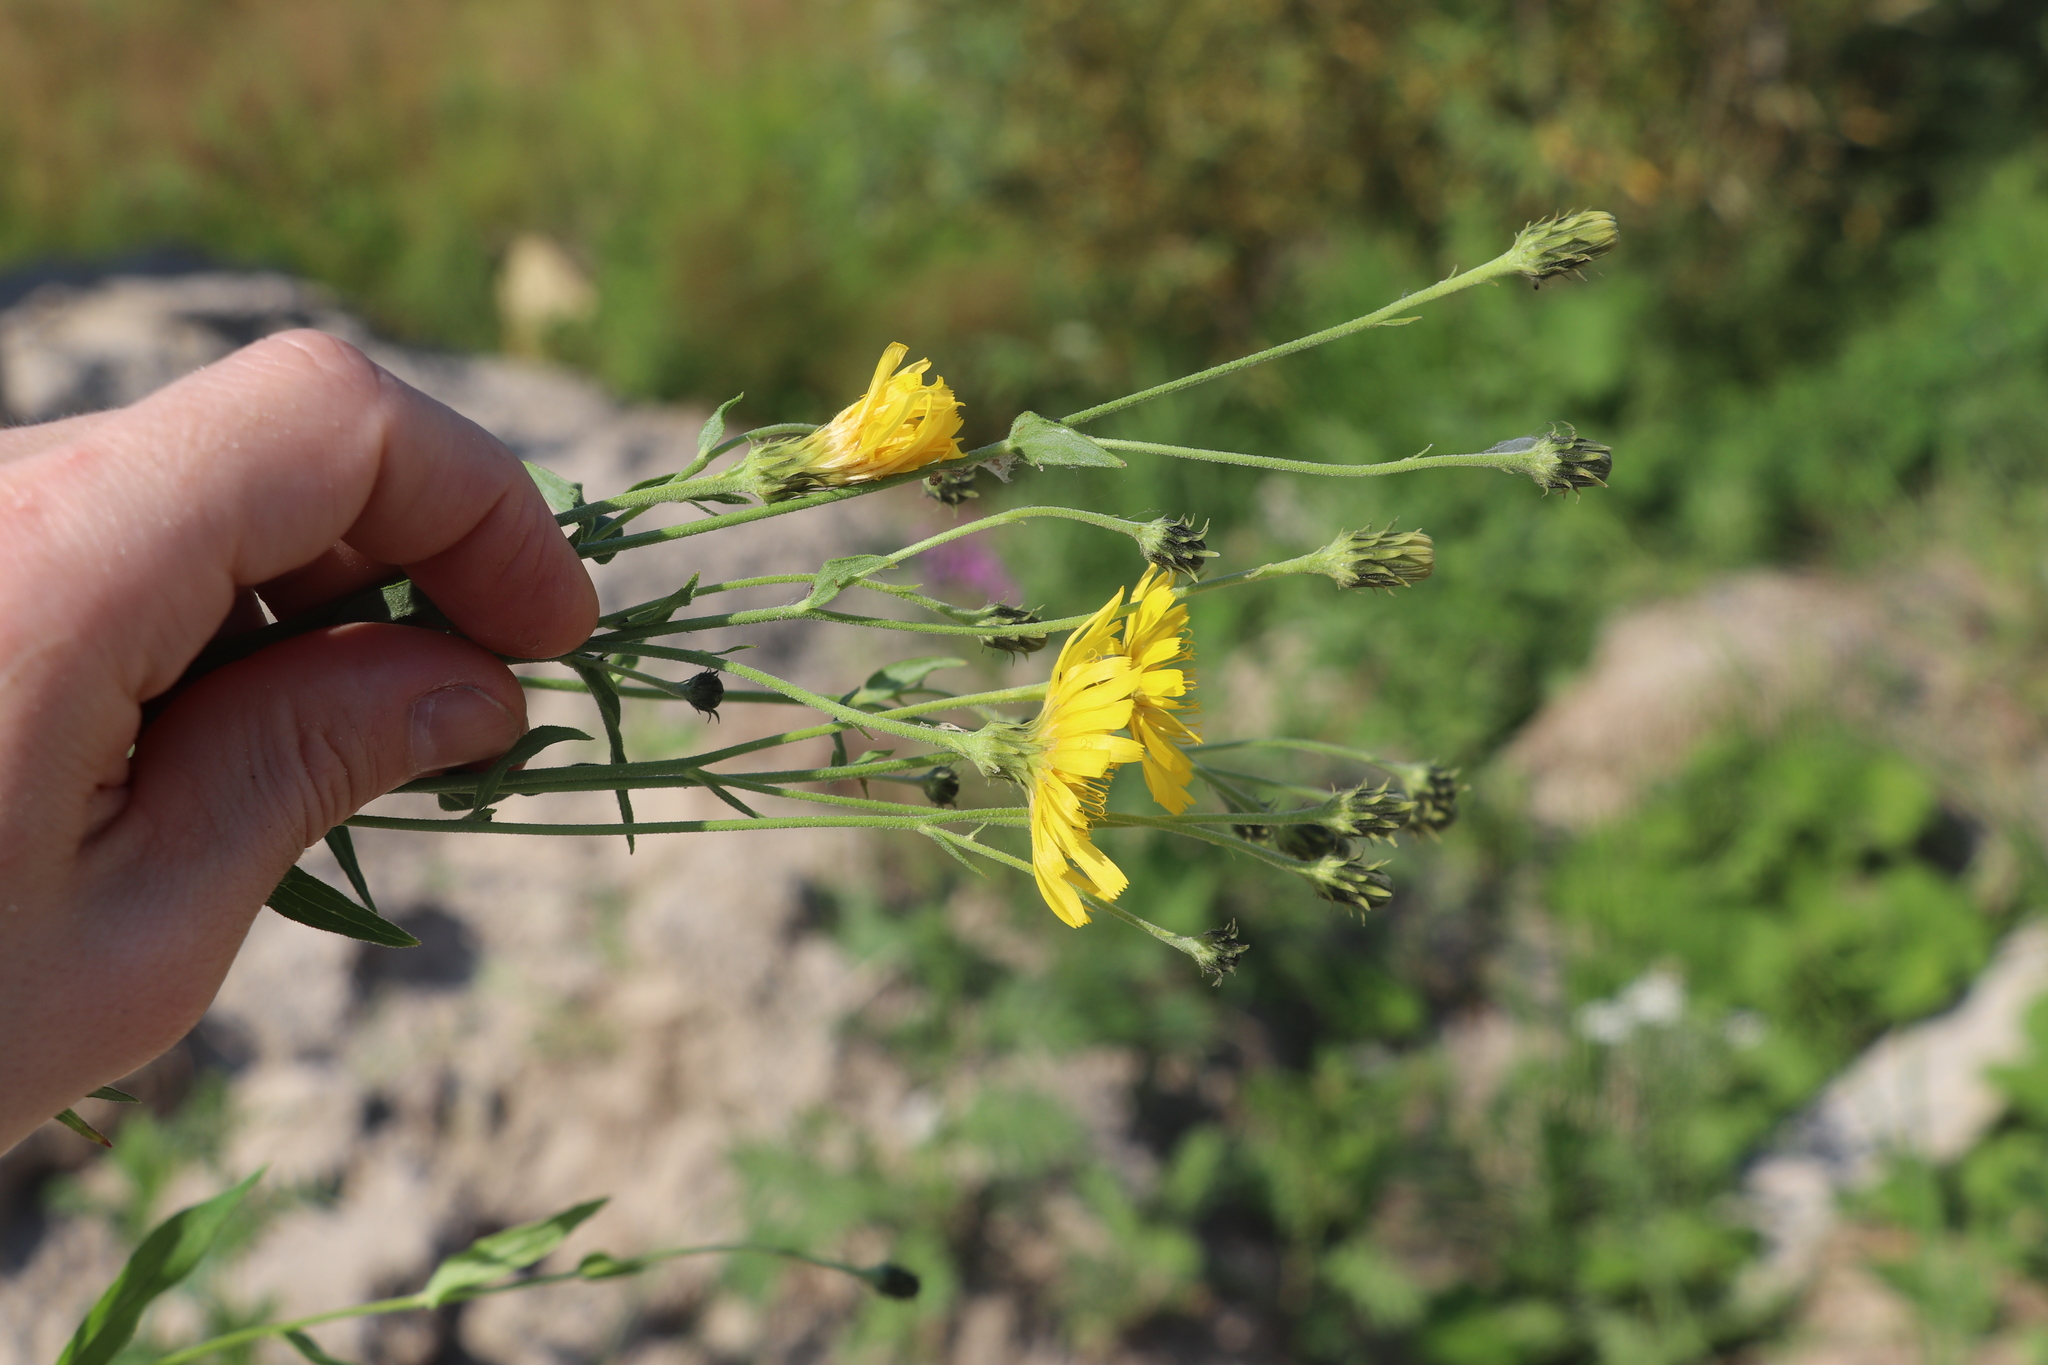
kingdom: Plantae
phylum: Tracheophyta
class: Magnoliopsida
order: Asterales
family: Asteraceae
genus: Hieracium
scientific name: Hieracium umbellatum
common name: Northern hawkweed
